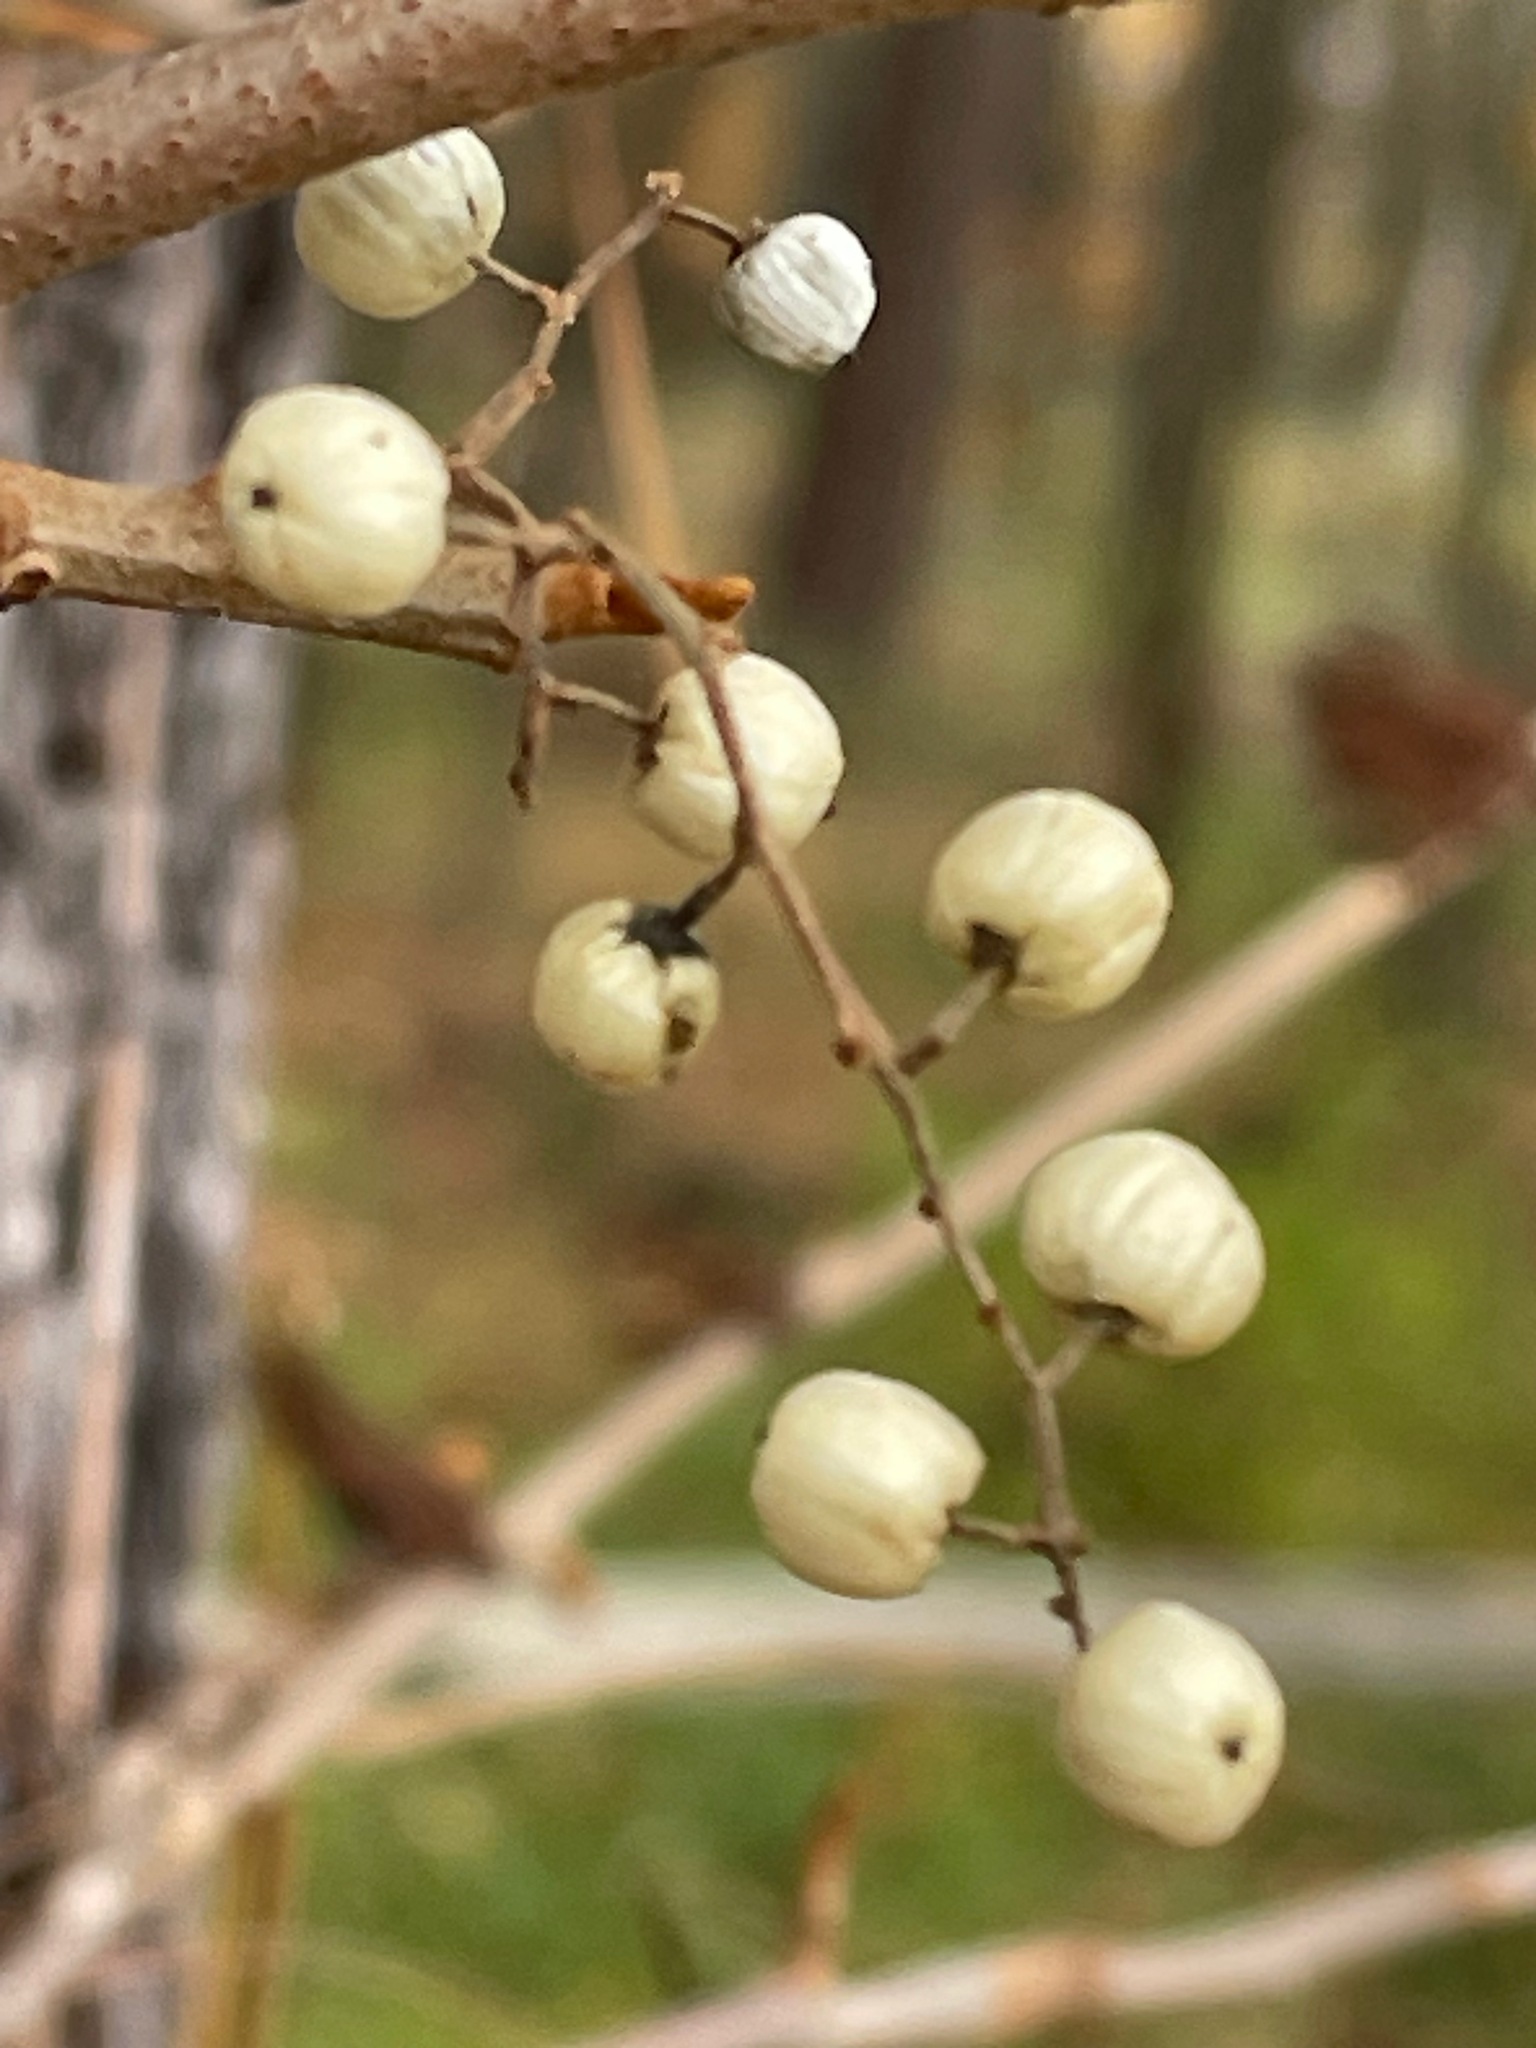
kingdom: Plantae
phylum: Tracheophyta
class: Magnoliopsida
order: Sapindales
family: Anacardiaceae
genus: Toxicodendron
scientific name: Toxicodendron radicans
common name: Poison ivy
